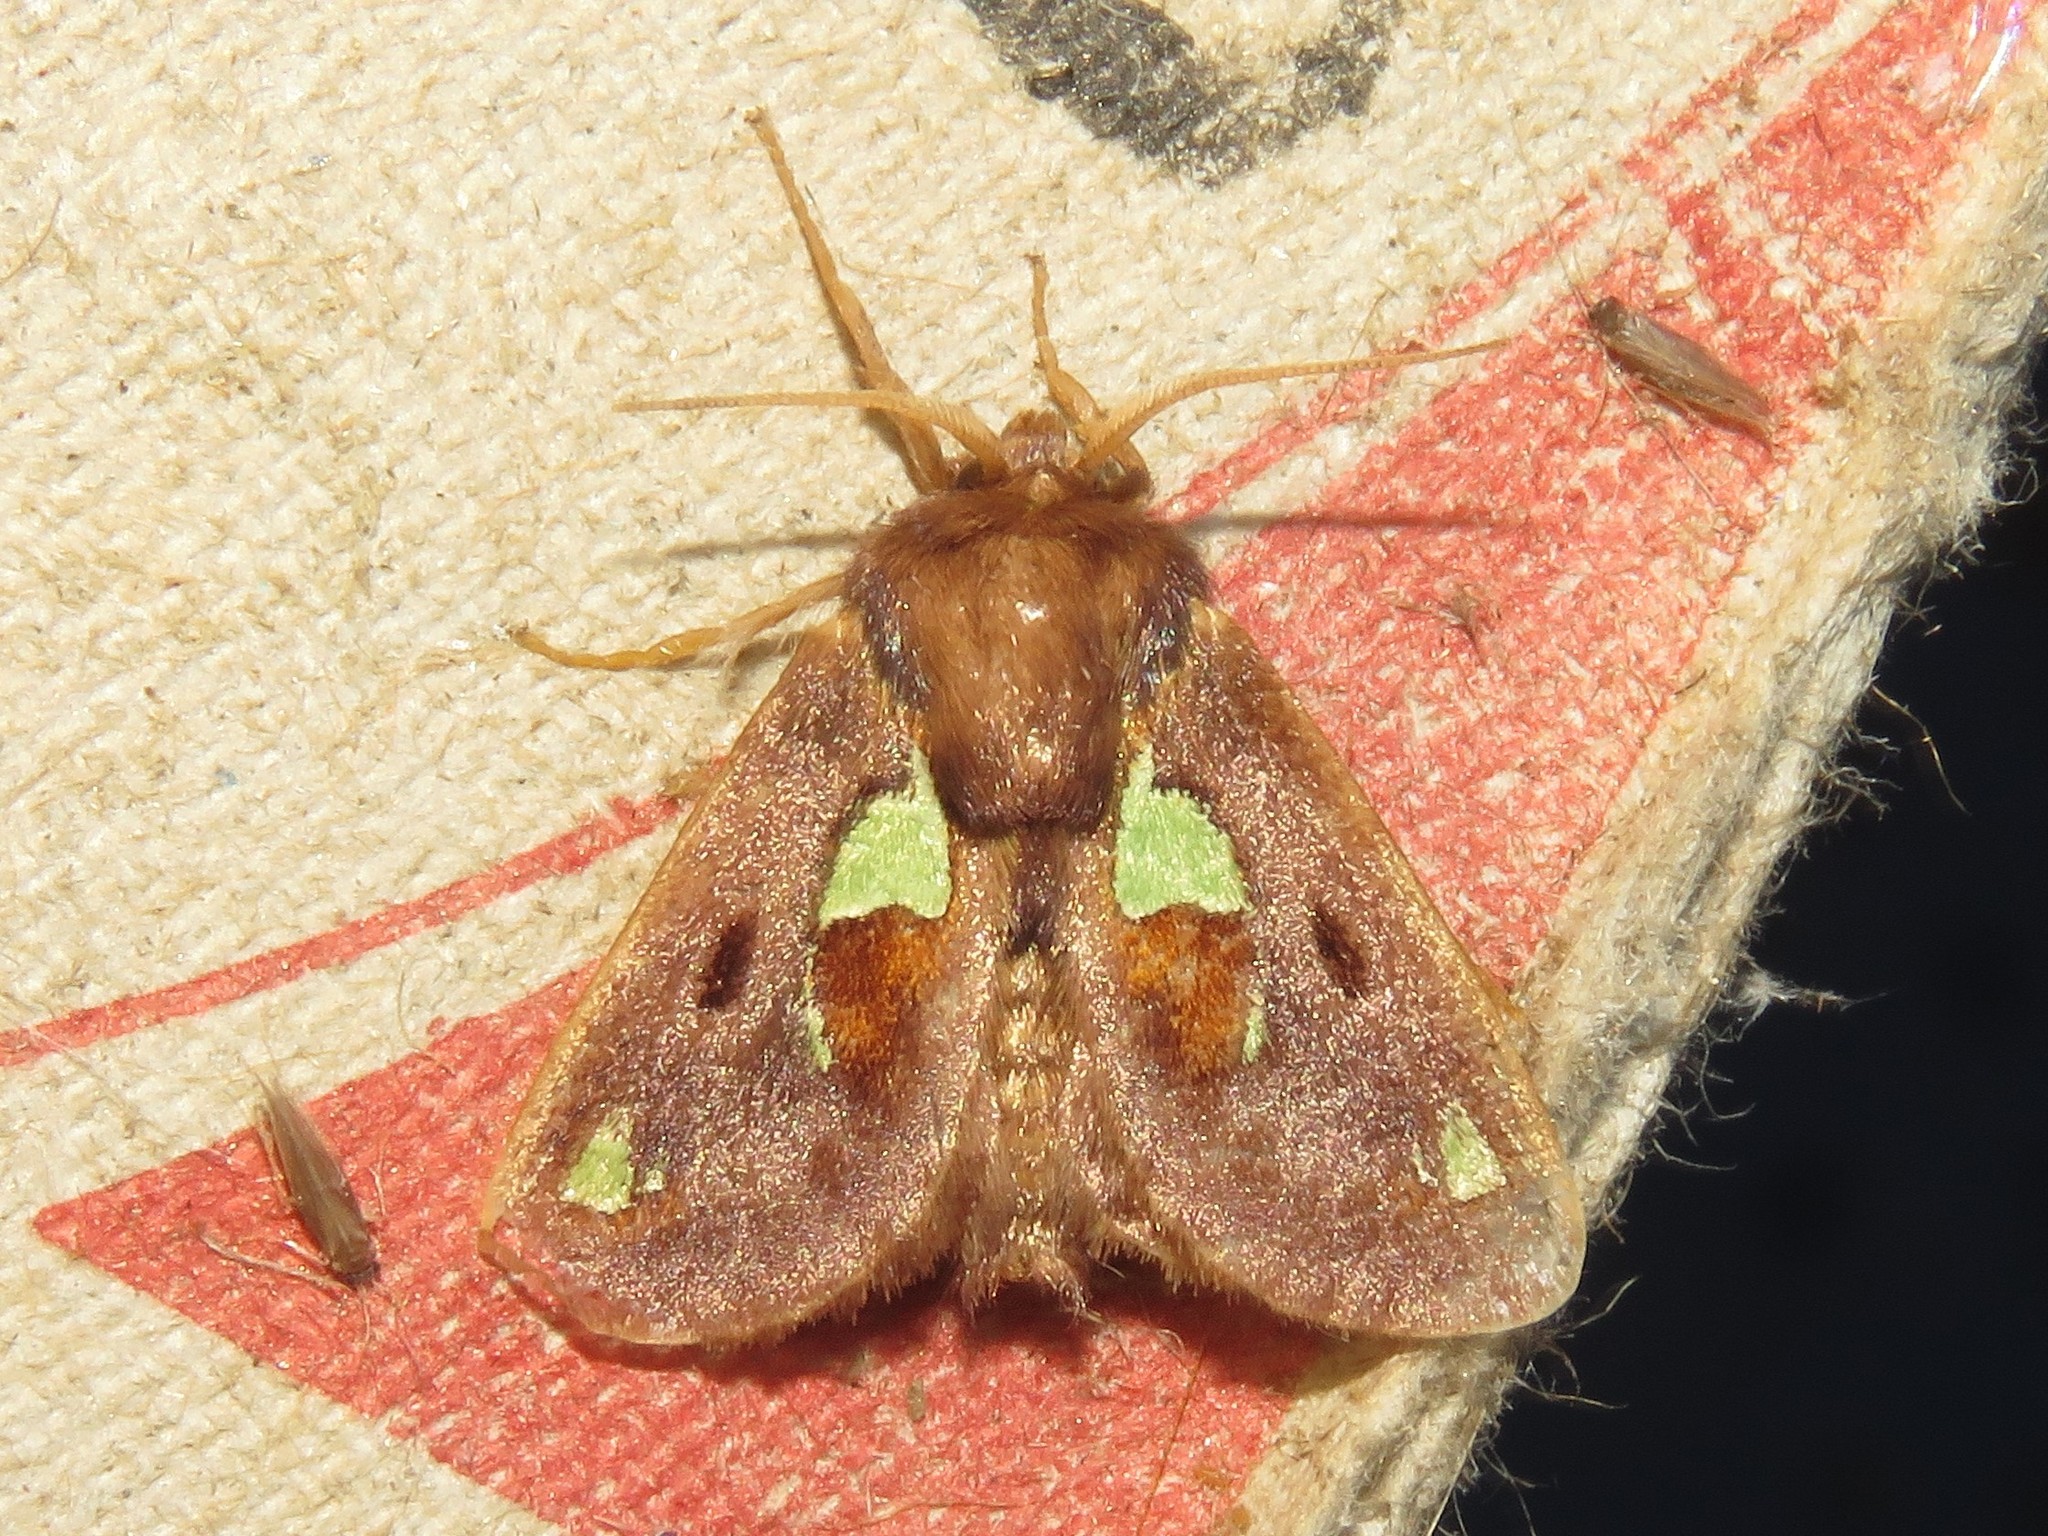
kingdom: Animalia
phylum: Arthropoda
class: Insecta
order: Lepidoptera
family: Limacodidae
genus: Euclea
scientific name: Euclea delphinii
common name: Spiny oak-slug moth
